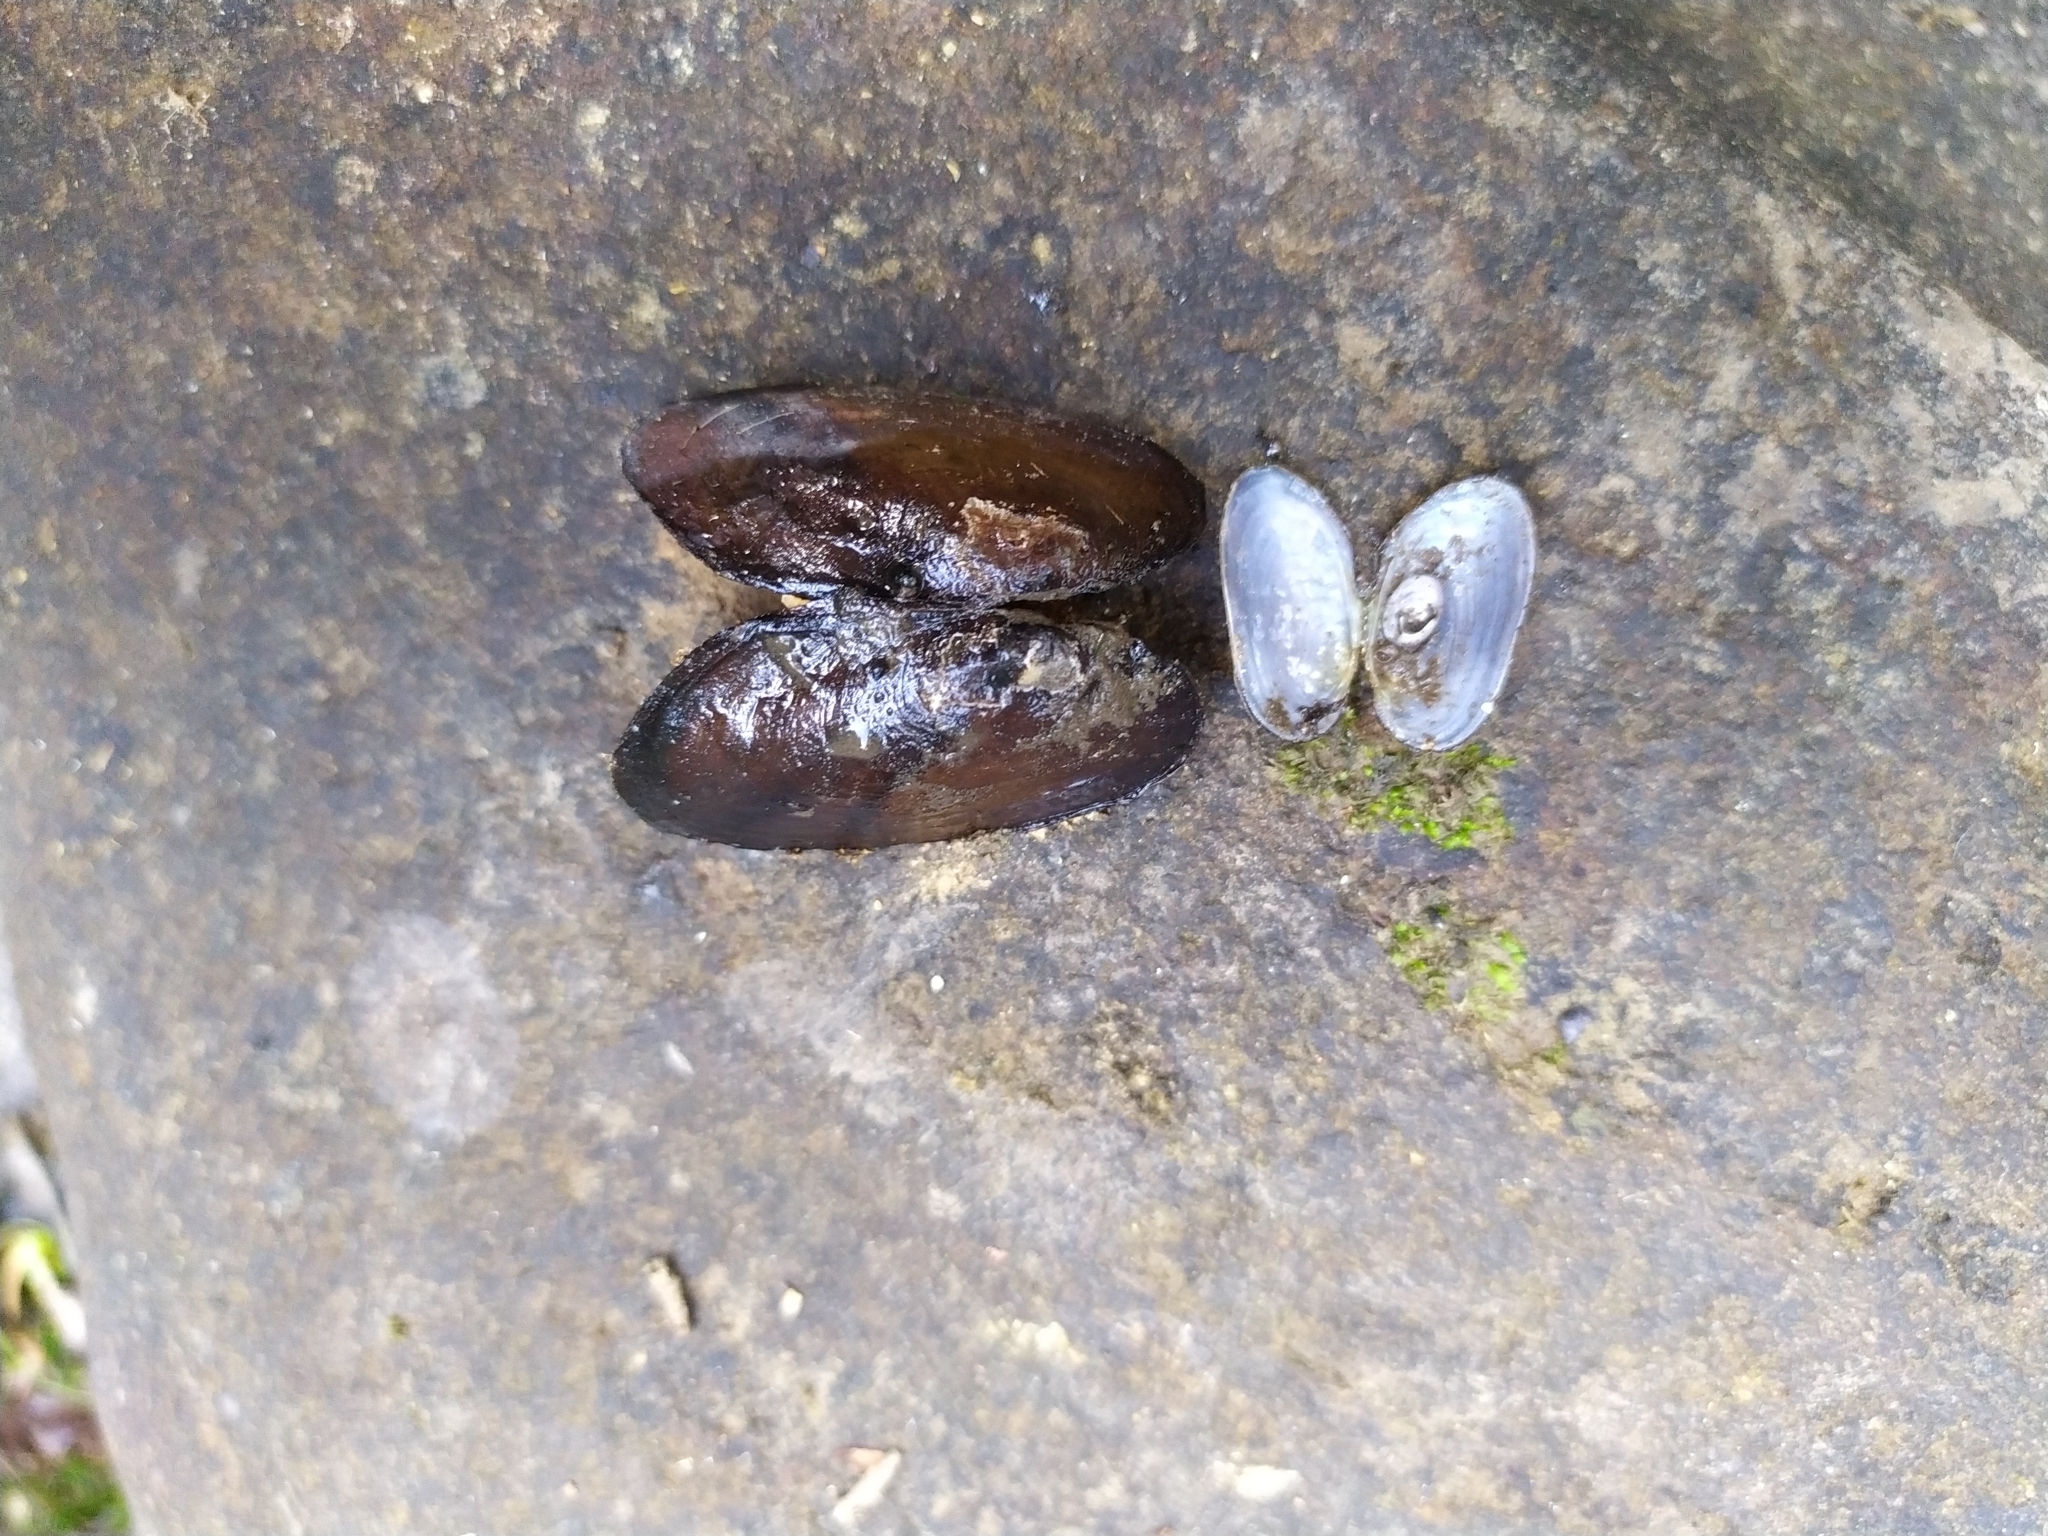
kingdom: Animalia
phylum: Mollusca
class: Bivalvia
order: Unionida
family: Hyriidae
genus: Echyridella
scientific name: Echyridella menziesii
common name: New zealand freshwater mussel
